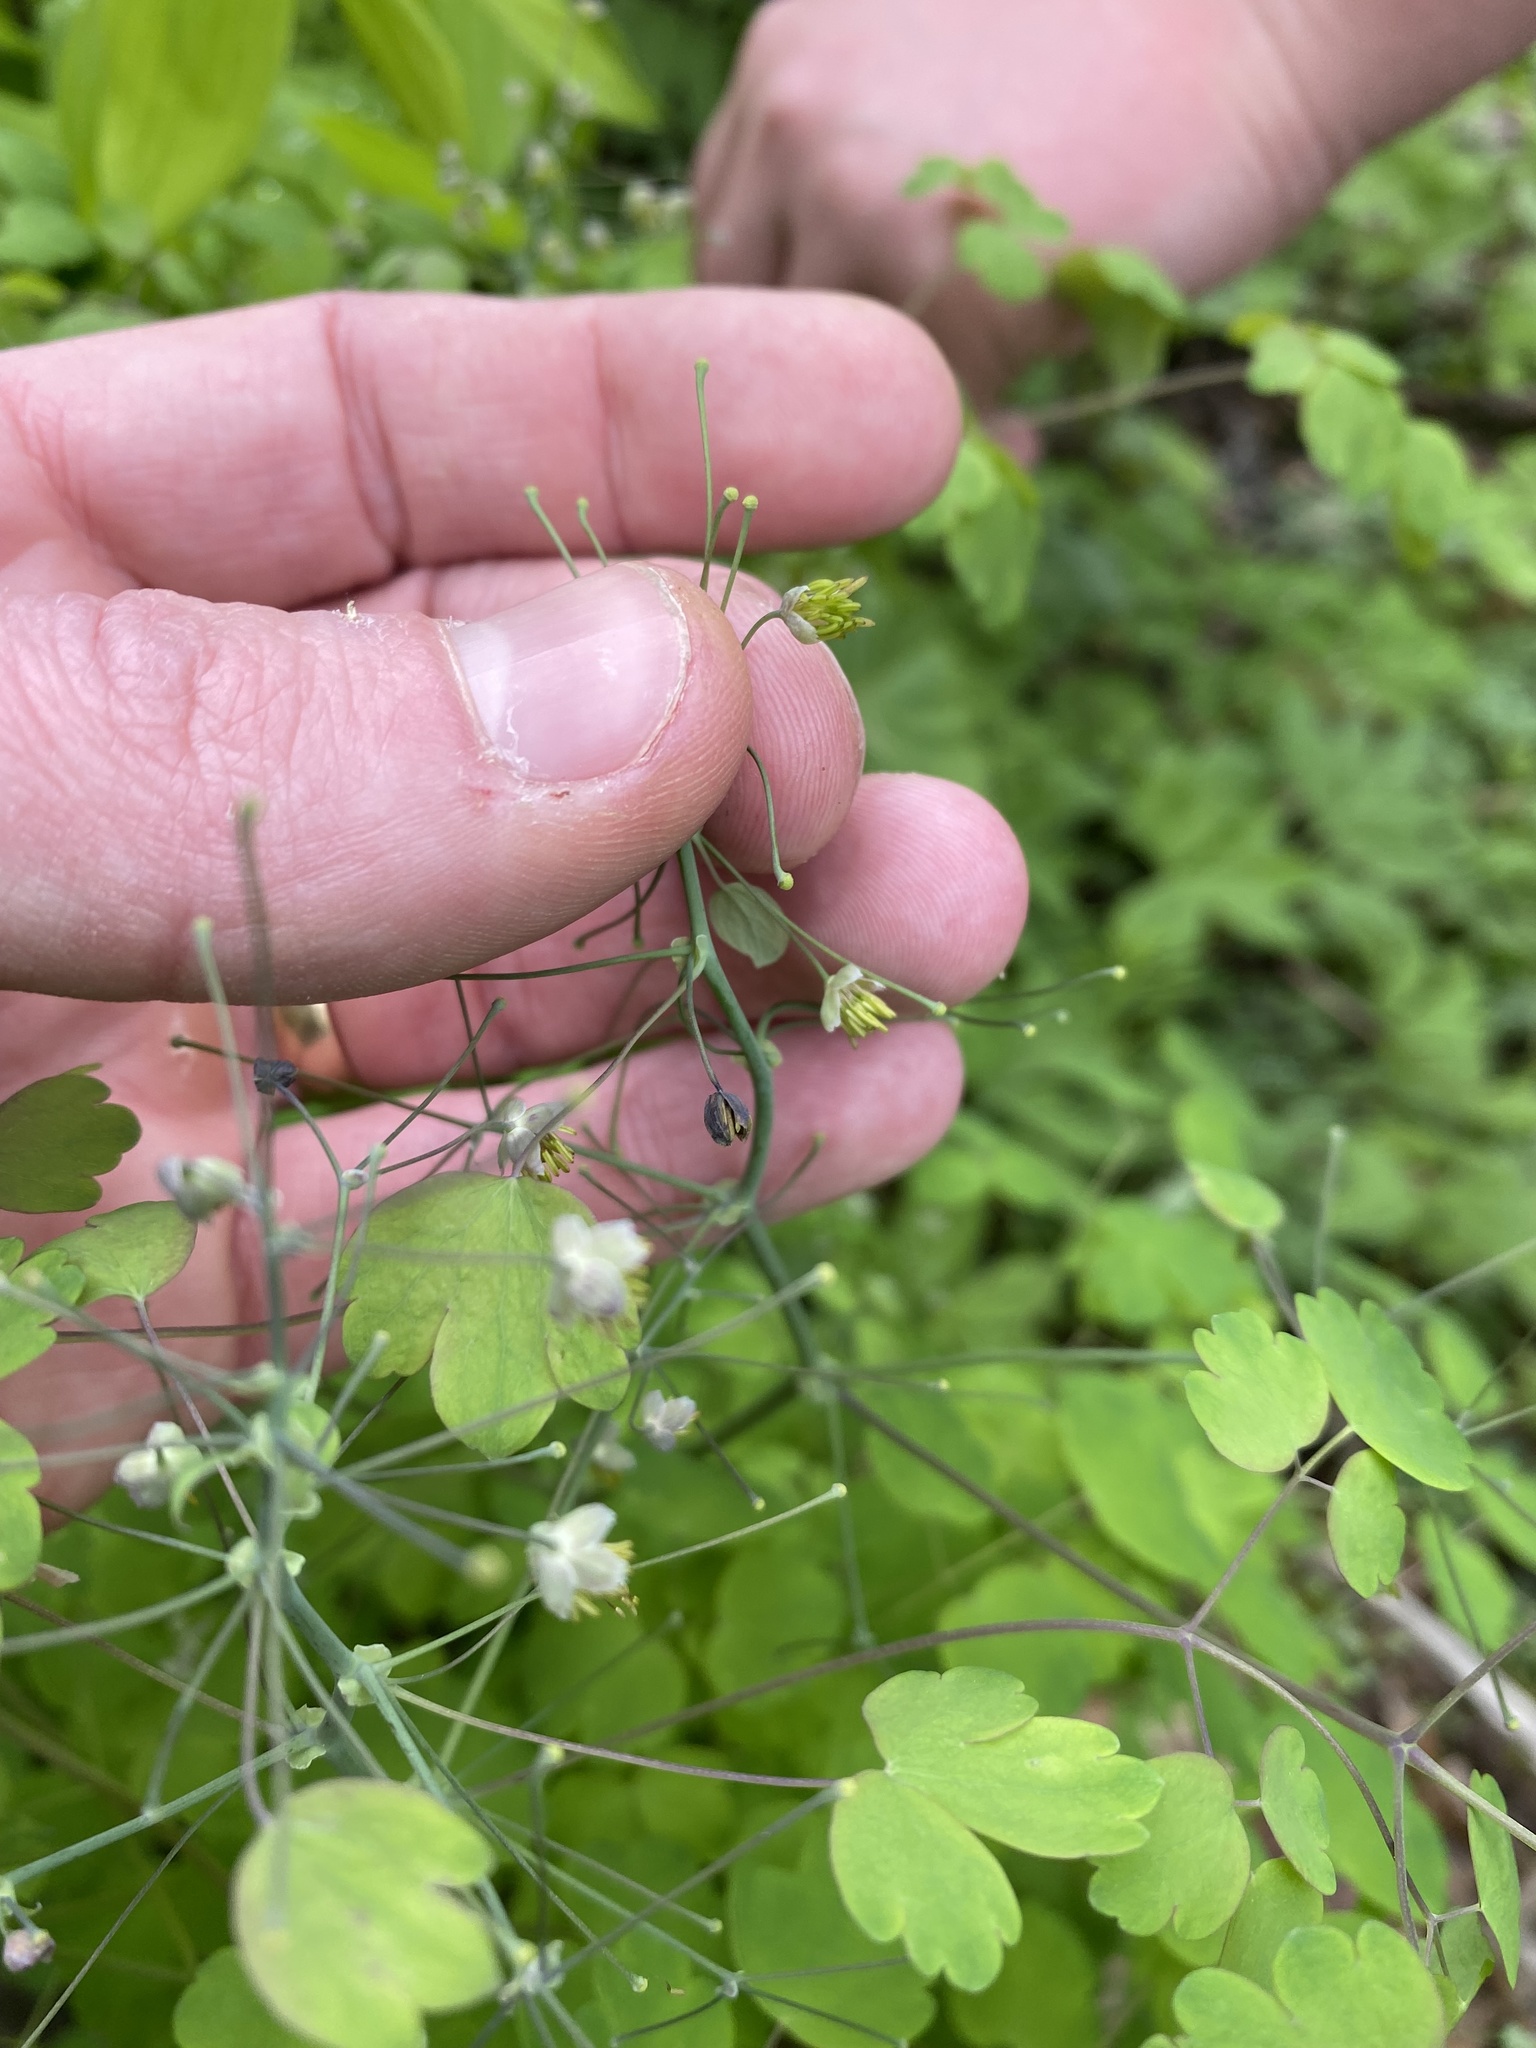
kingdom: Plantae
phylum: Tracheophyta
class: Magnoliopsida
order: Ranunculales
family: Ranunculaceae
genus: Thalictrum
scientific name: Thalictrum dioicum
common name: Early meadow-rue
